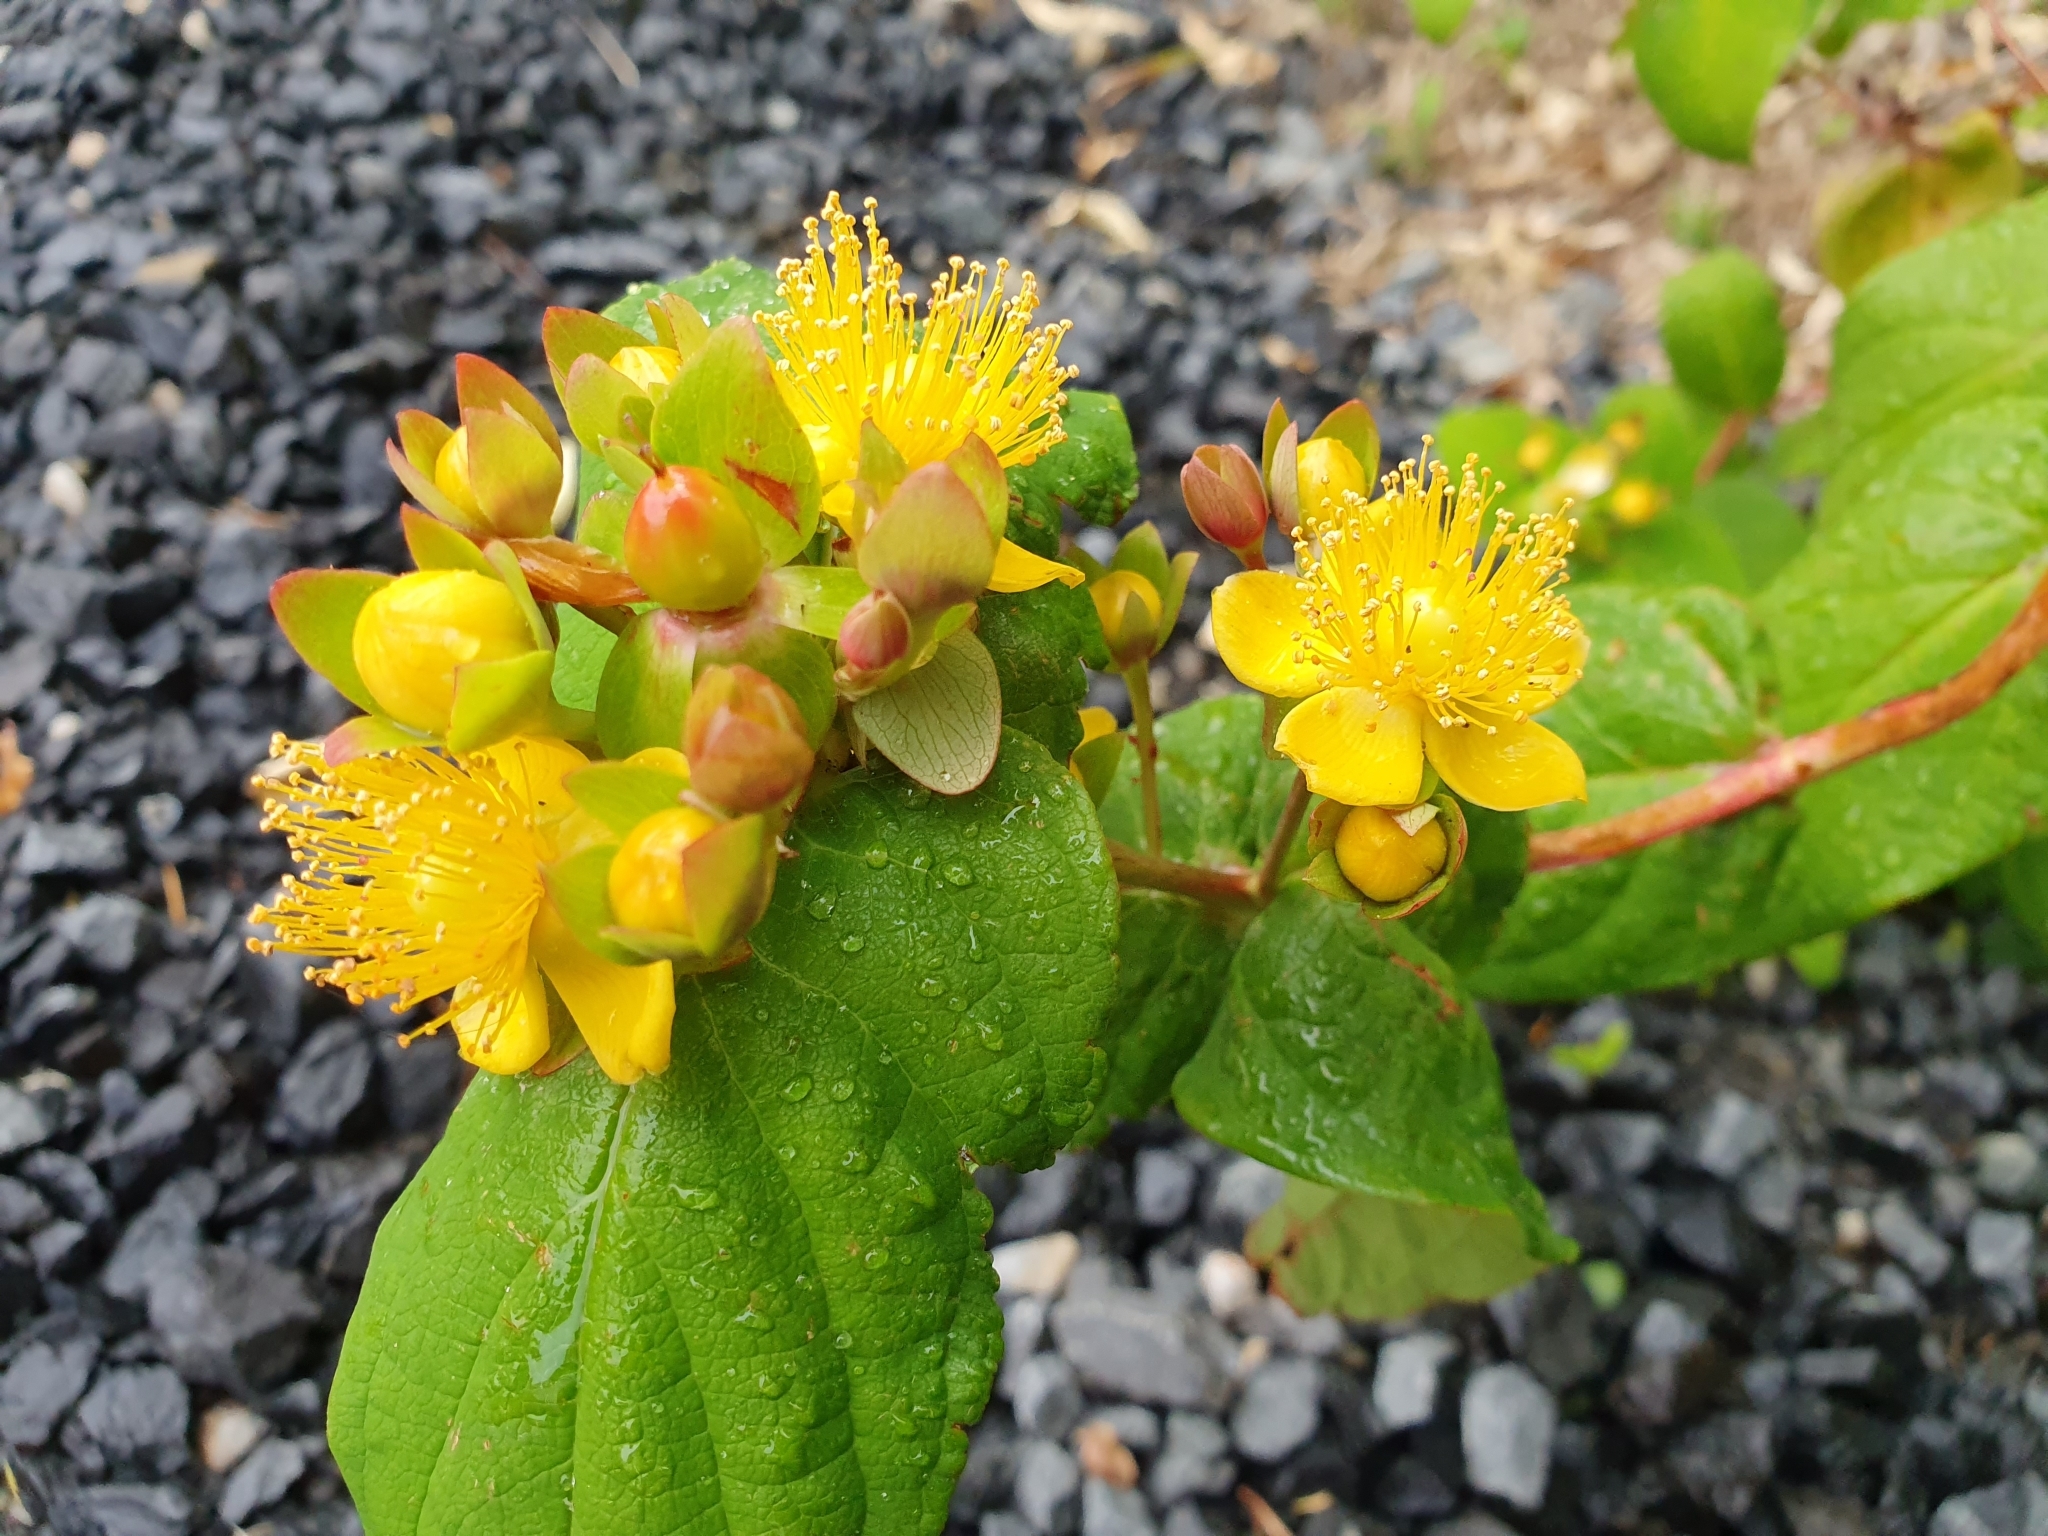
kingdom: Plantae
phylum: Tracheophyta
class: Magnoliopsida
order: Malpighiales
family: Hypericaceae
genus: Hypericum
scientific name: Hypericum androsaemum
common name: Sweet-amber
